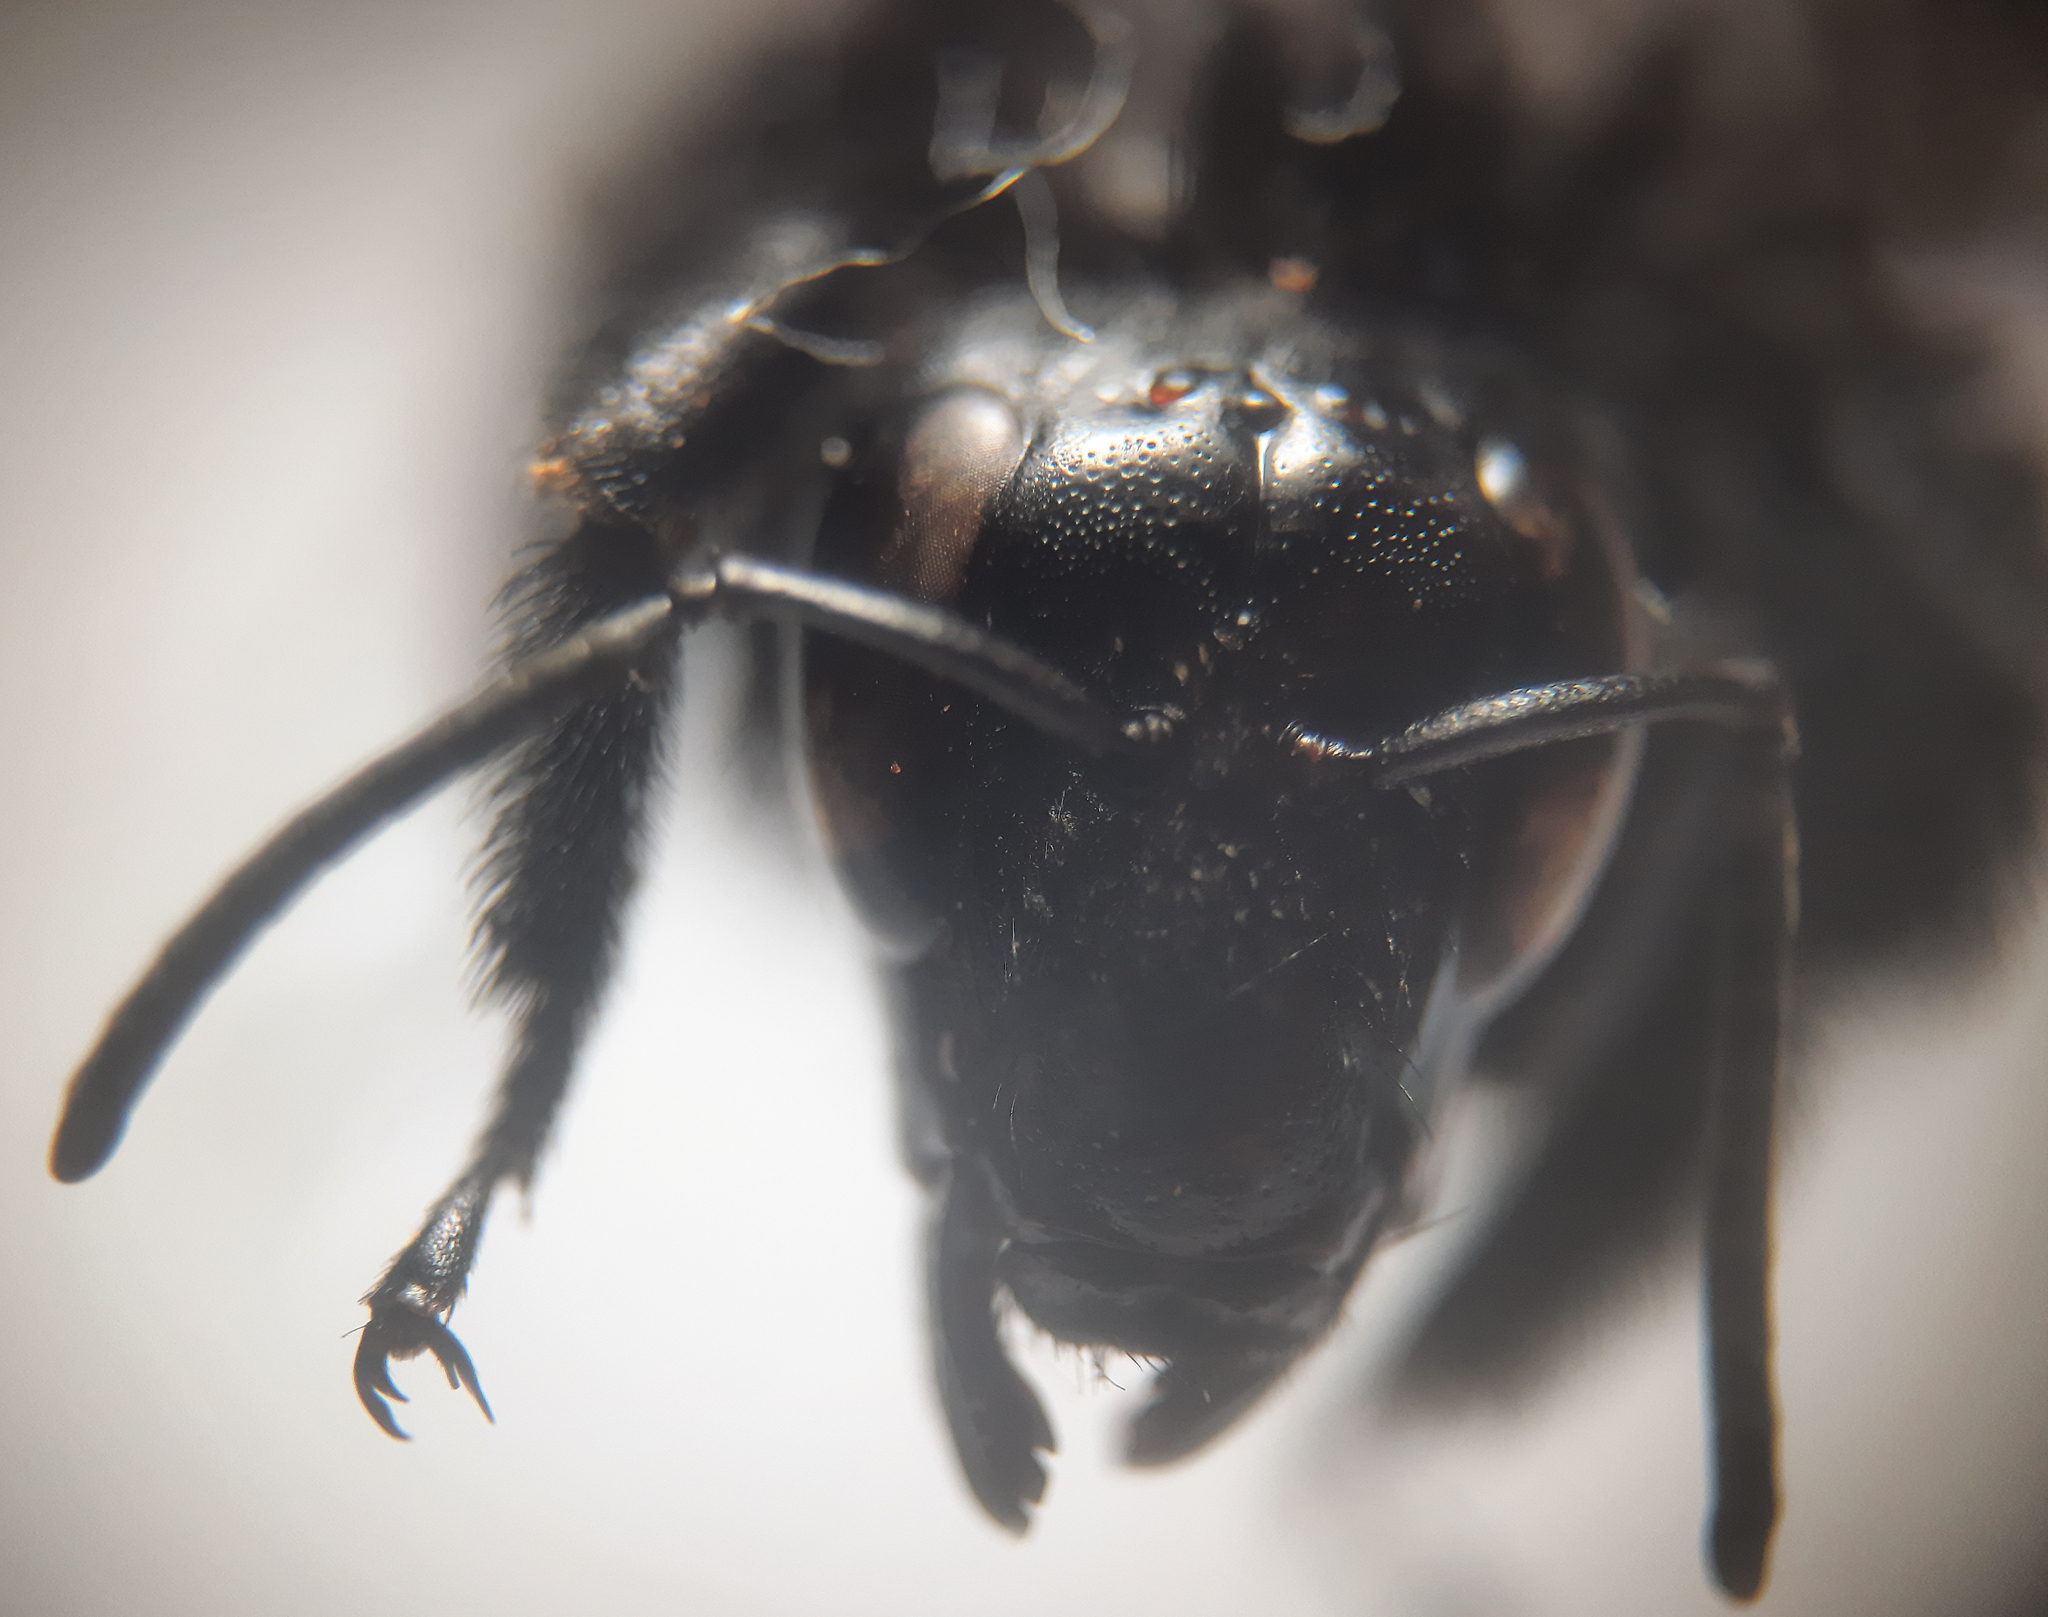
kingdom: Animalia
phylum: Arthropoda
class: Insecta
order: Hymenoptera
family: Apidae
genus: Bombus
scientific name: Bombus morio
